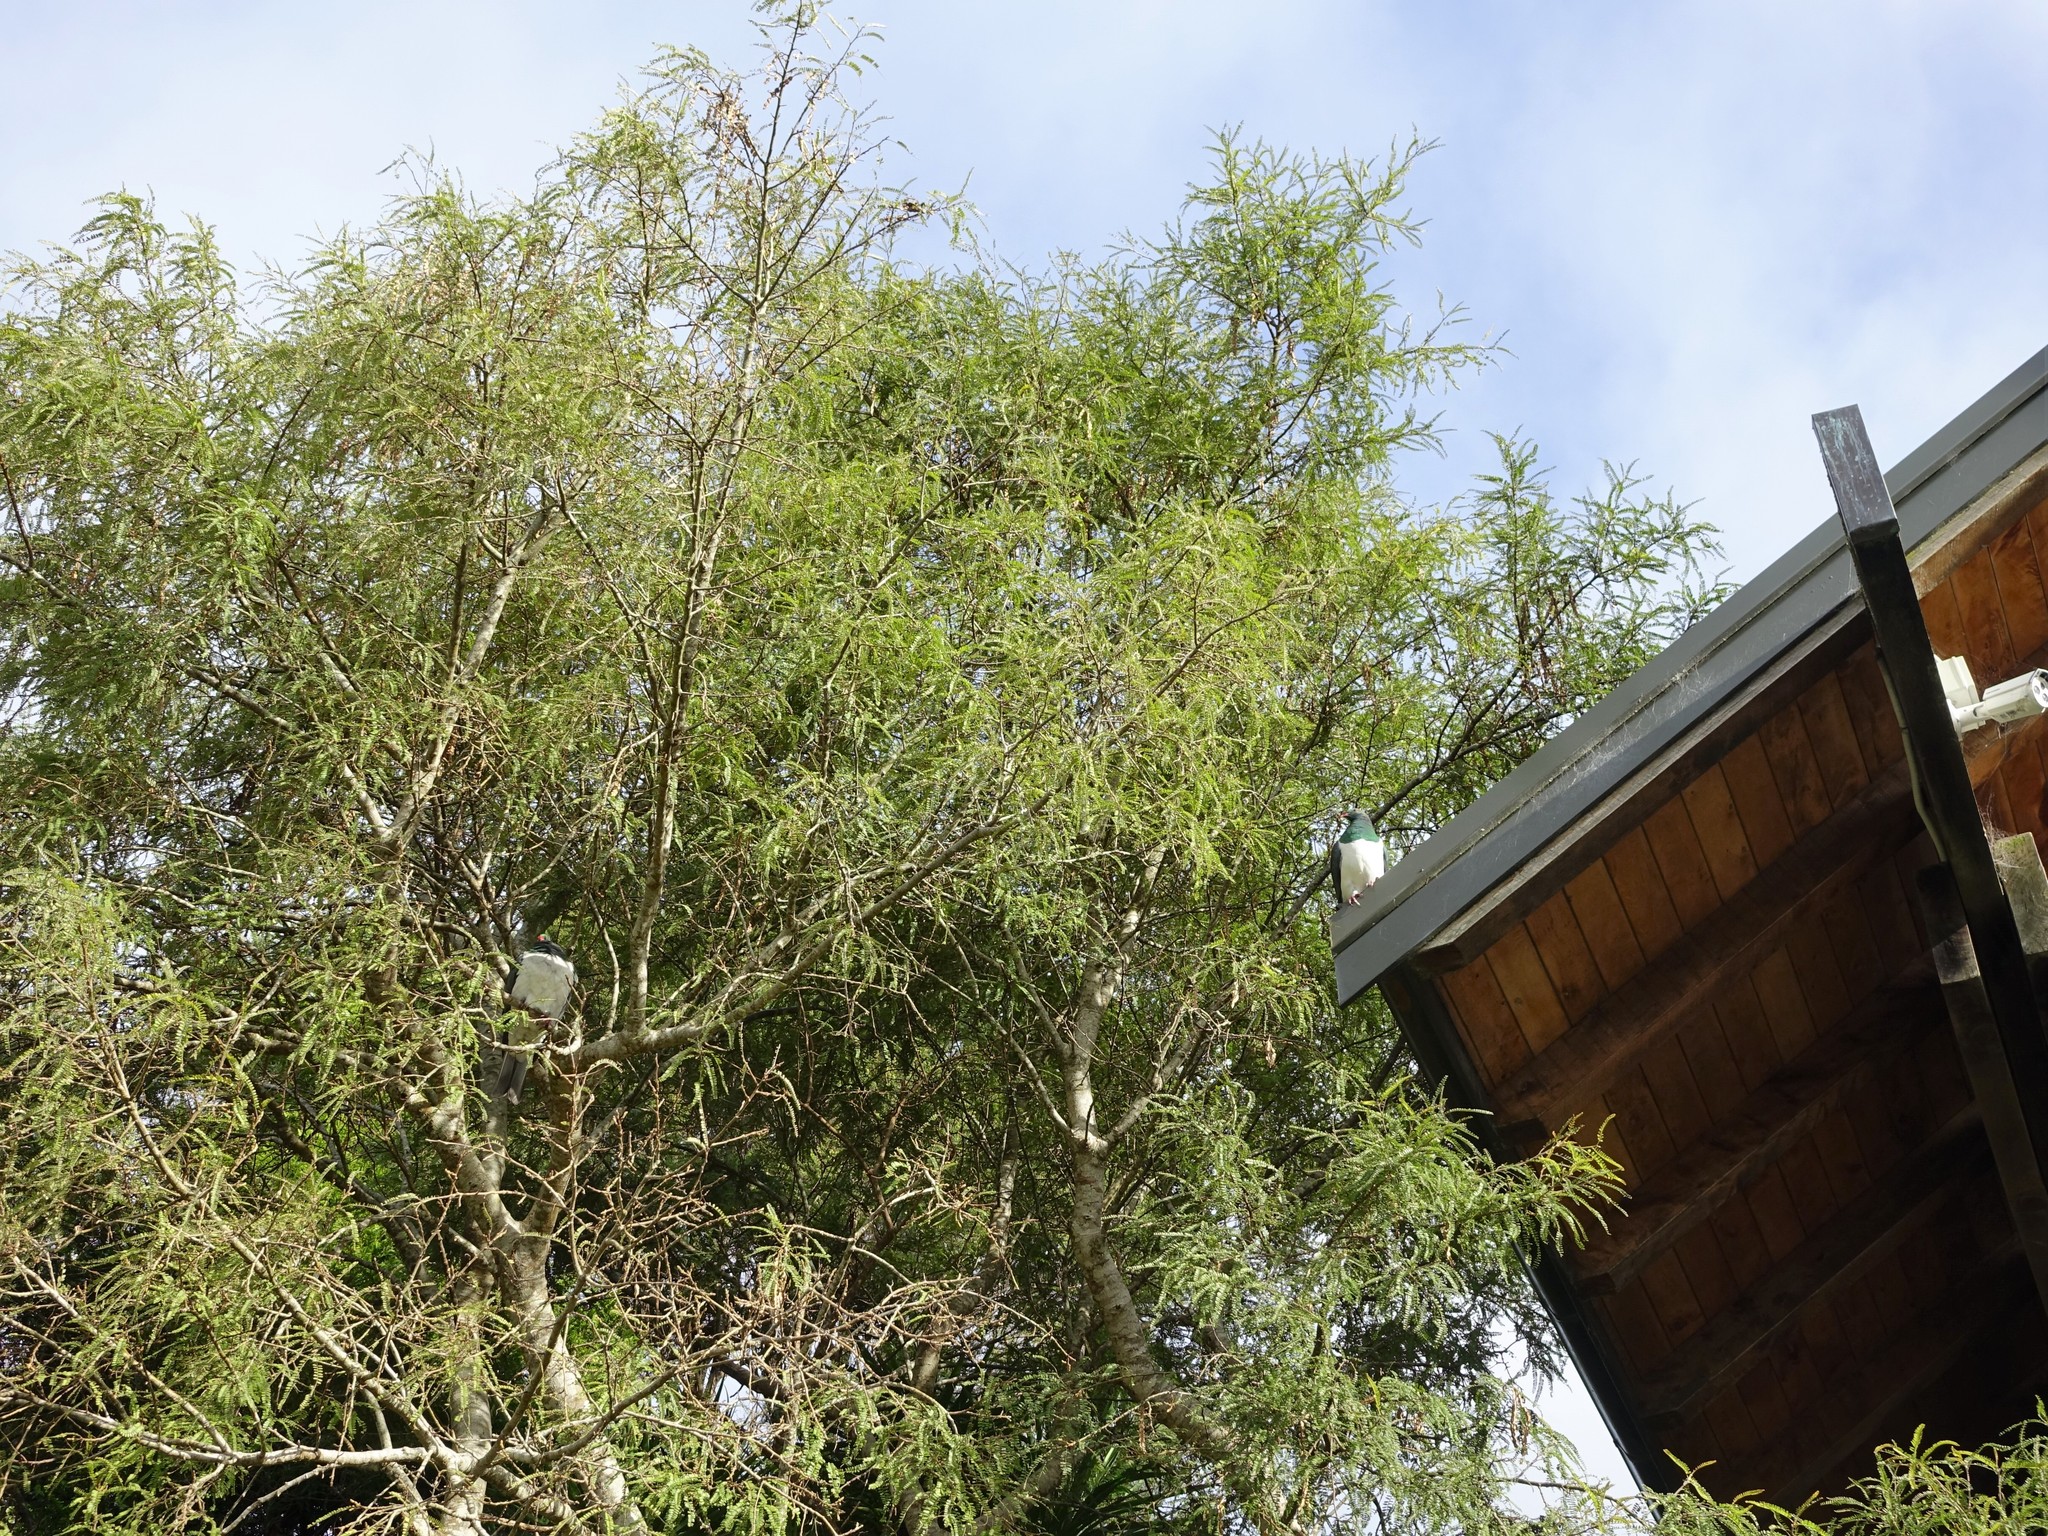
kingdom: Animalia
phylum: Chordata
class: Aves
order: Columbiformes
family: Columbidae
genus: Hemiphaga
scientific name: Hemiphaga novaeseelandiae
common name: New zealand pigeon
